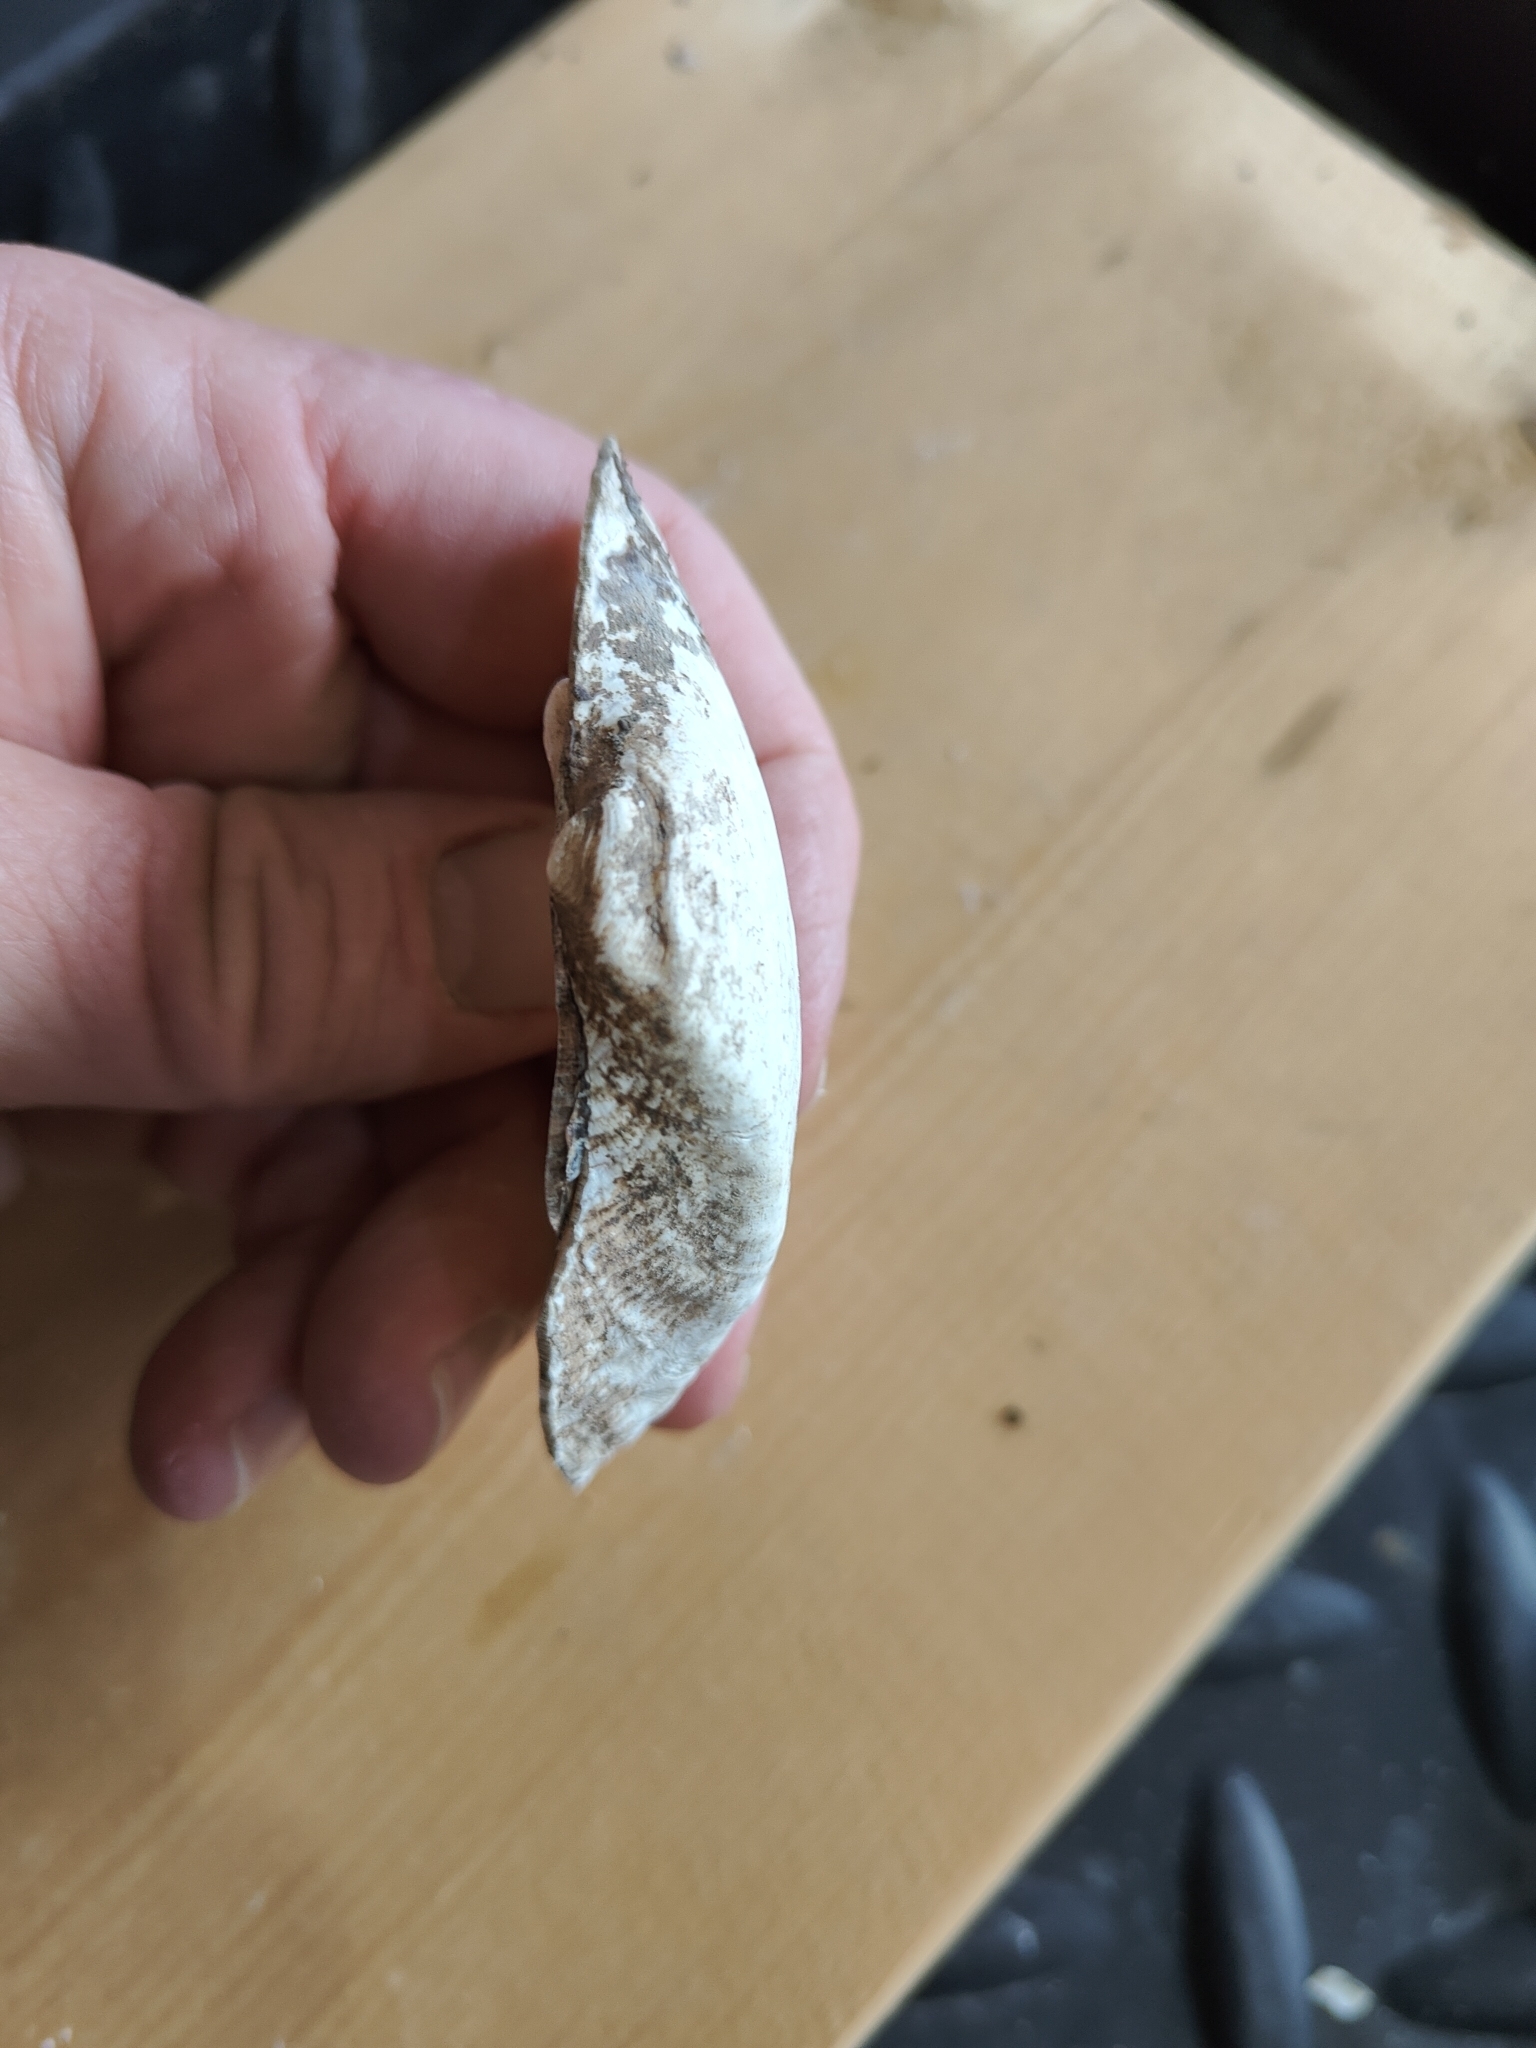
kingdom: Animalia
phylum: Mollusca
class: Bivalvia
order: Unionida
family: Unionidae
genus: Alasmidonta
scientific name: Alasmidonta marginata
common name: Elktoe
